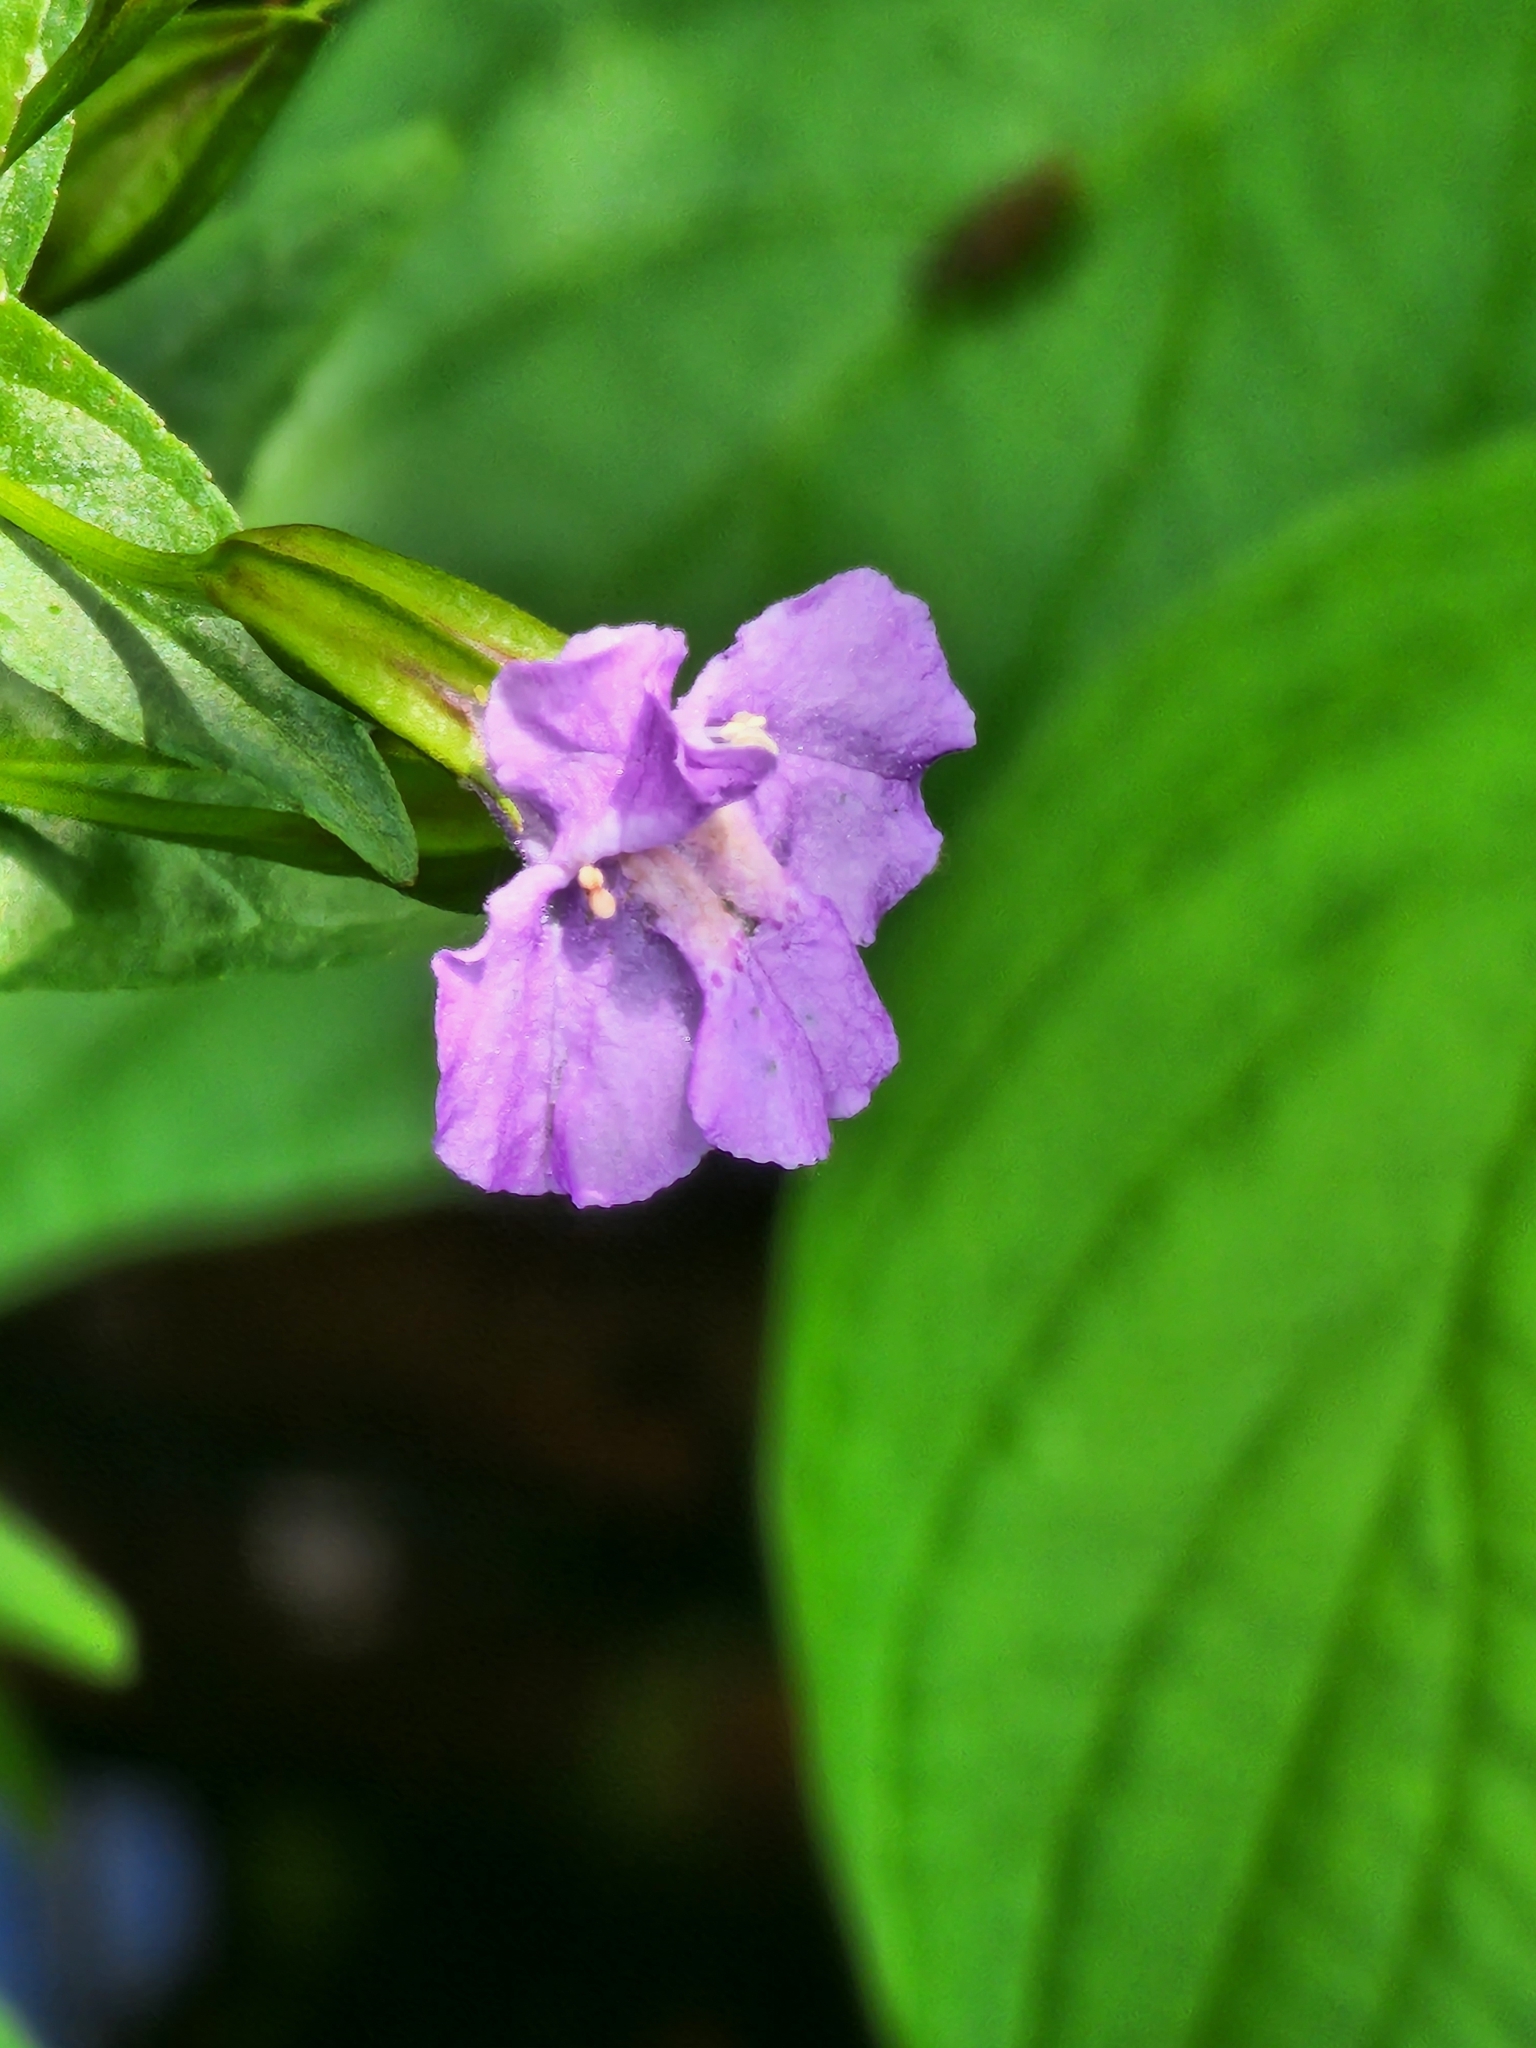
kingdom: Plantae
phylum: Tracheophyta
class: Magnoliopsida
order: Lamiales
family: Phrymaceae
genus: Mimulus
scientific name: Mimulus ringens
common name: Allegheny monkeyflower
